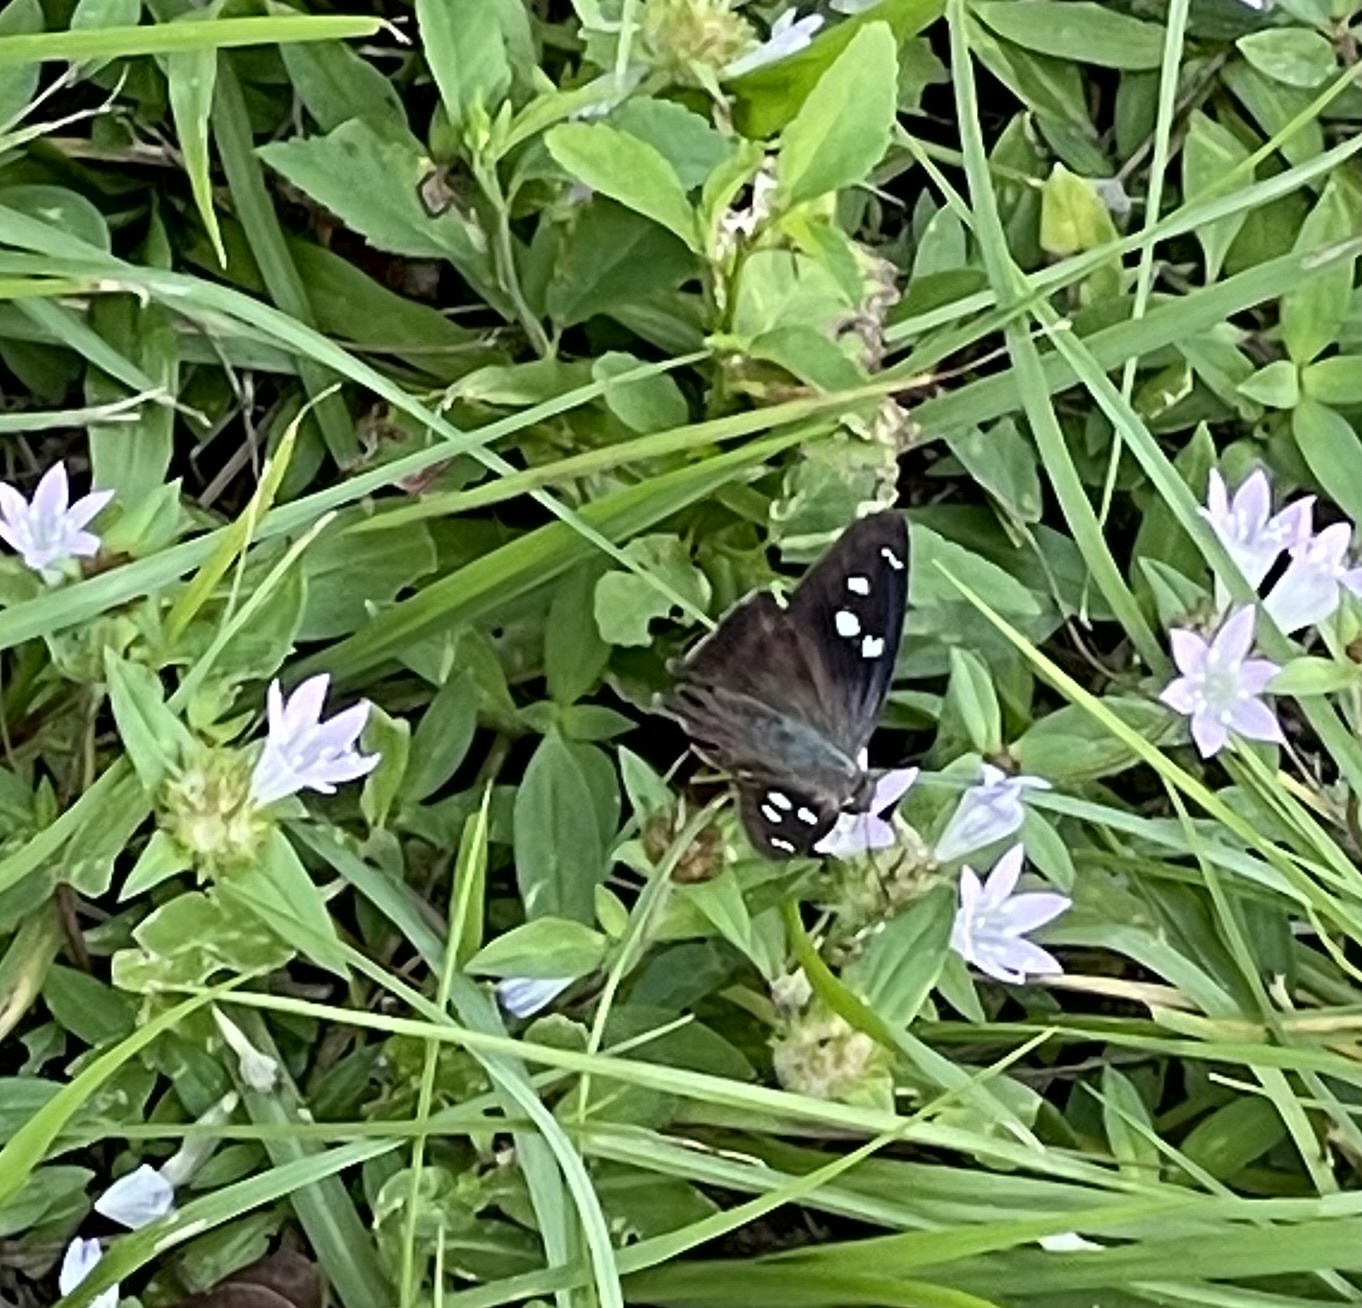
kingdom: Animalia
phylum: Arthropoda
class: Insecta
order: Lepidoptera
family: Hesperiidae
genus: Polygonus
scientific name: Polygonus leo
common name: Hammoch skipper
